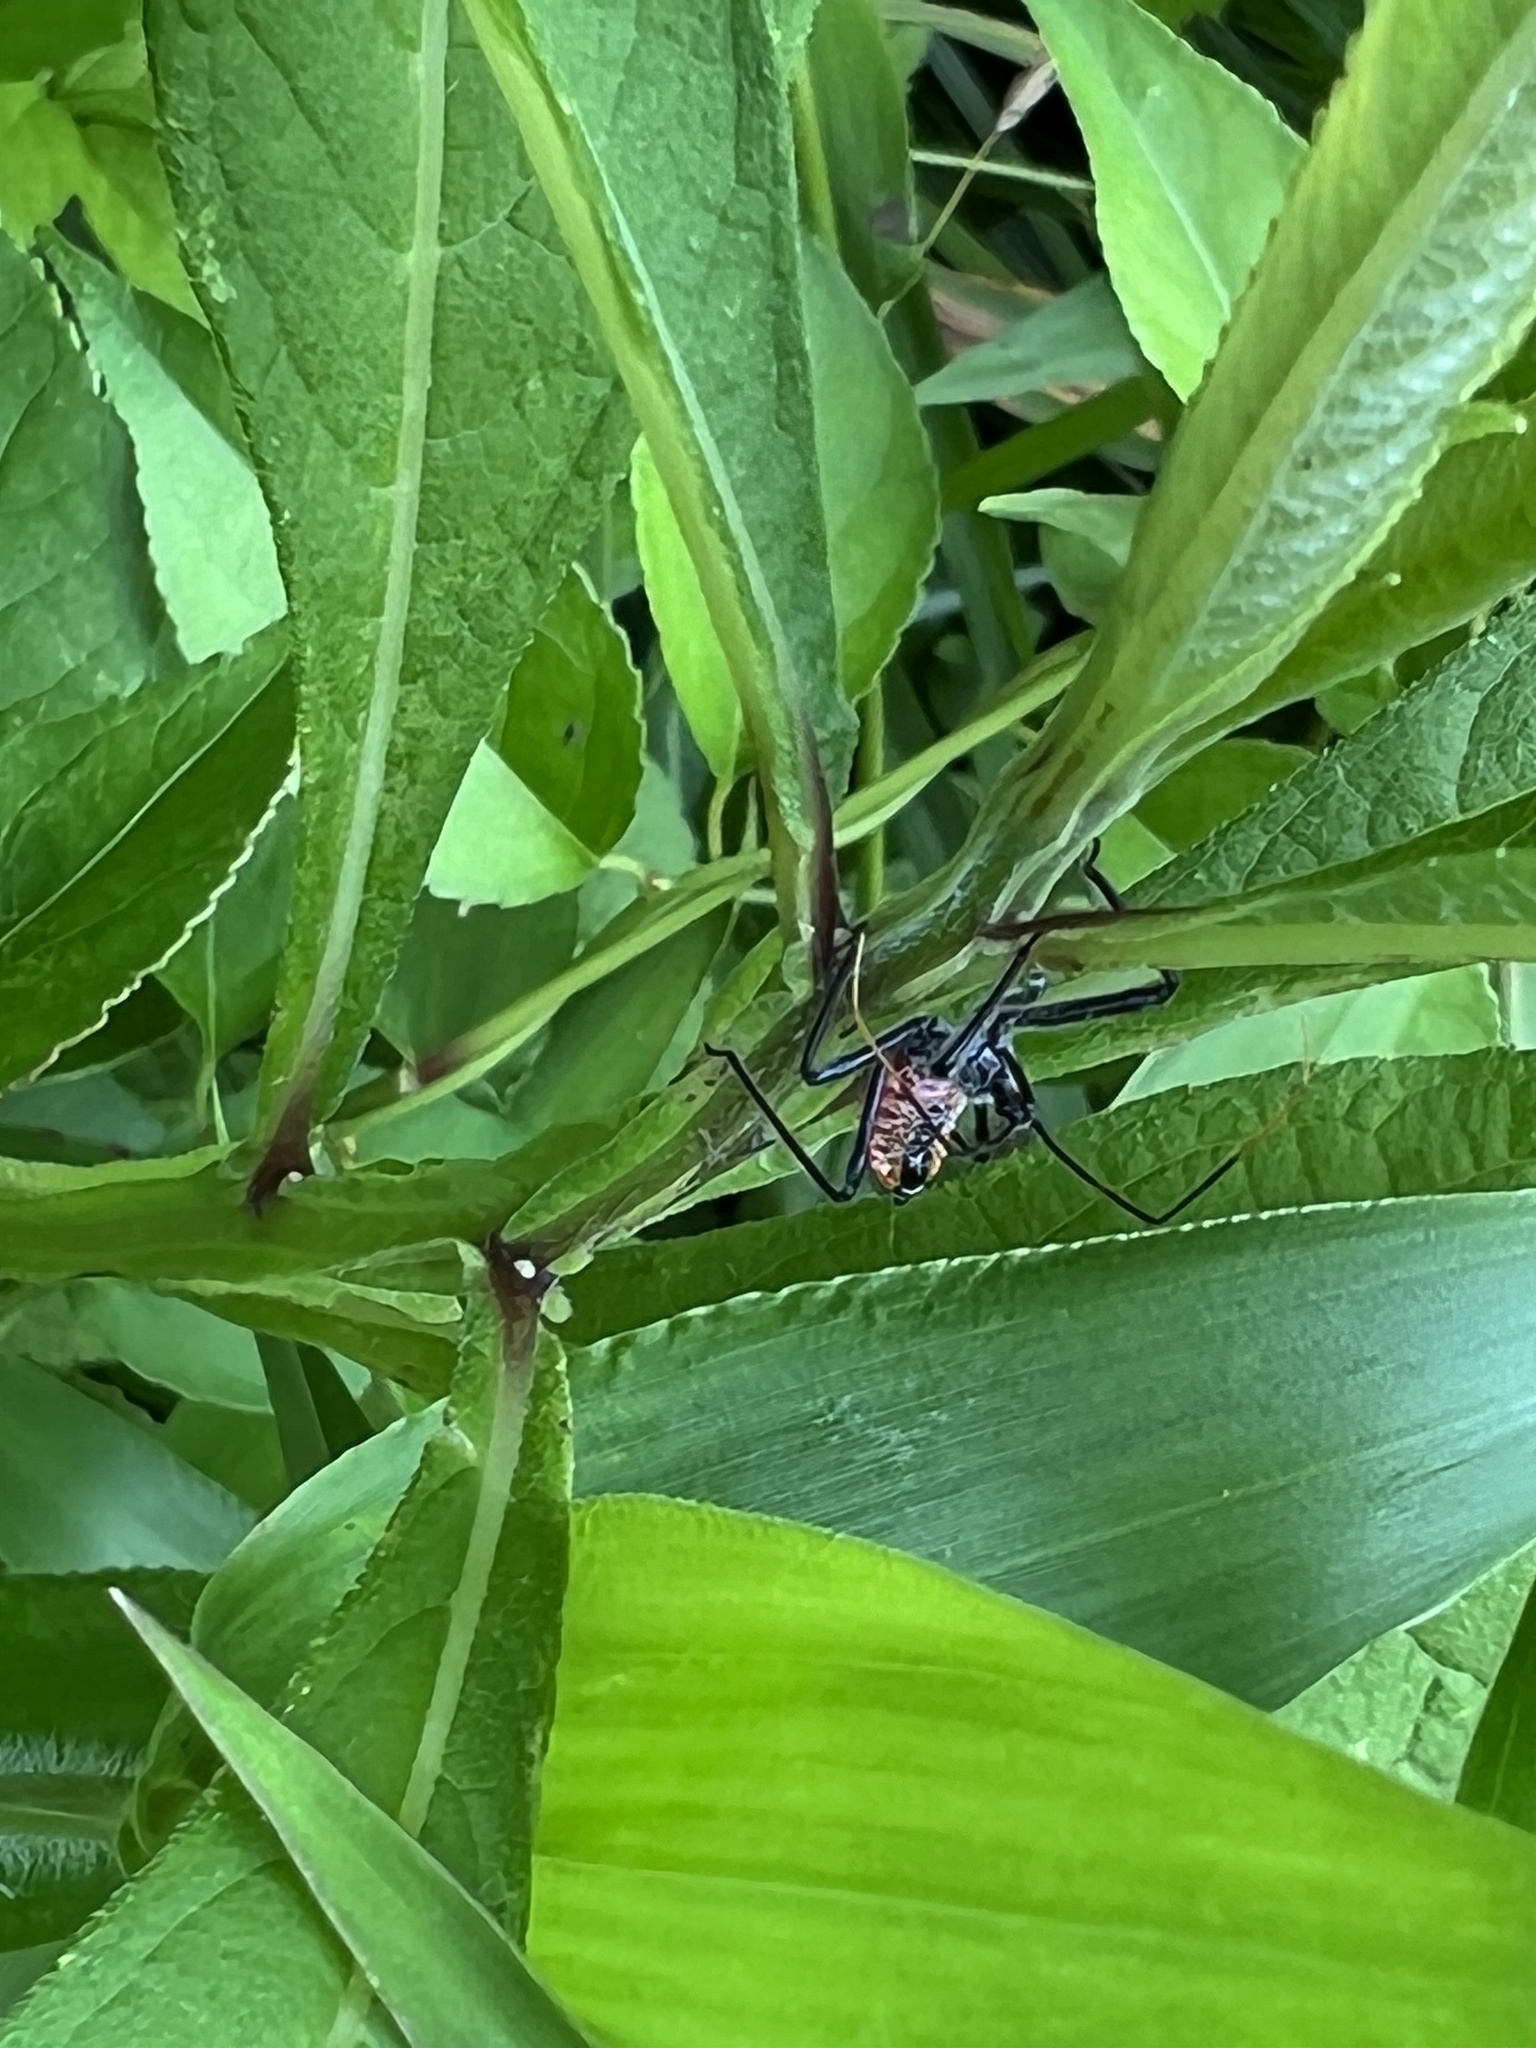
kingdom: Animalia
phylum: Arthropoda
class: Insecta
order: Hemiptera
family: Reduviidae
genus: Arilus
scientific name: Arilus cristatus
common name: North american wheel bug
